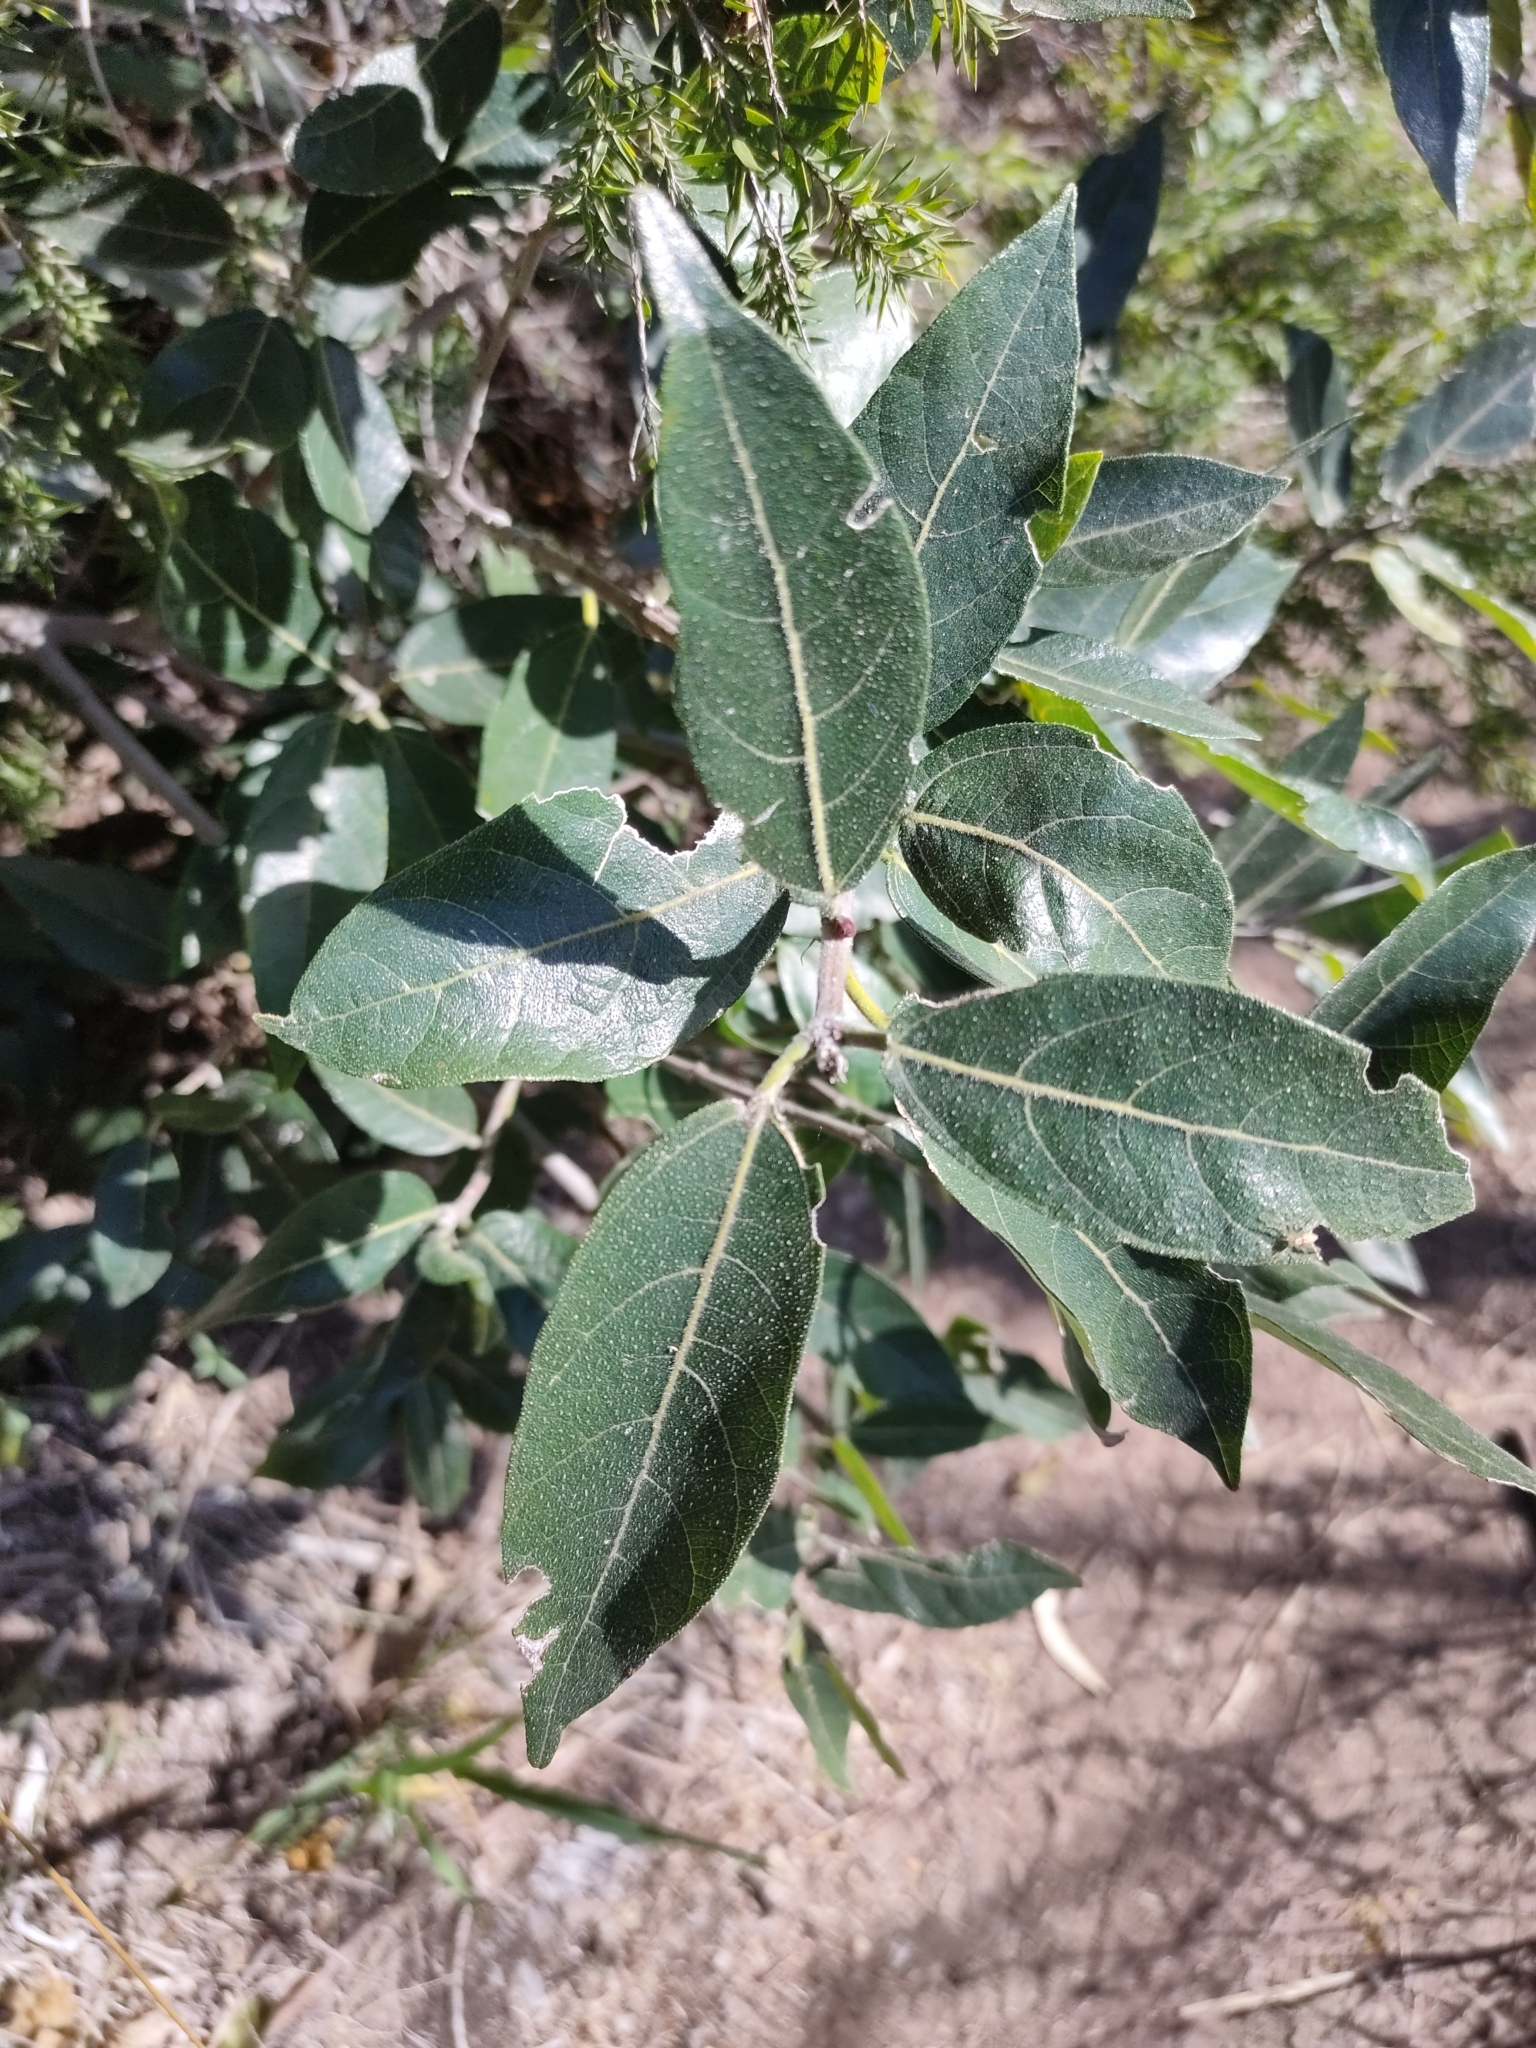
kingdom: Plantae
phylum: Tracheophyta
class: Magnoliopsida
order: Rosales
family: Moraceae
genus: Ficus
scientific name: Ficus opposita
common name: Figwood
